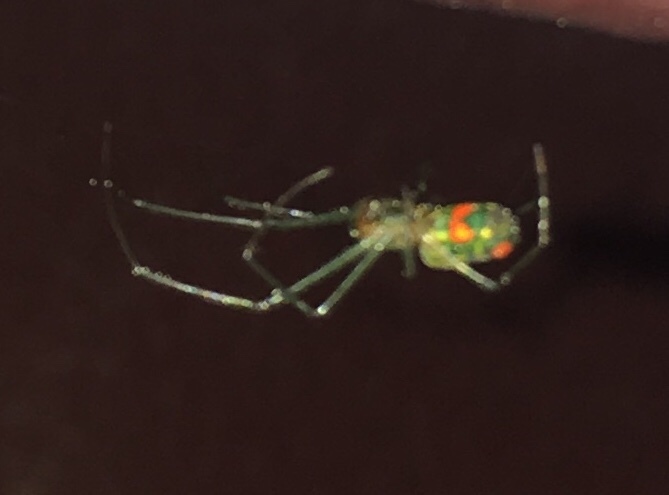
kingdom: Animalia
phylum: Arthropoda
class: Arachnida
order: Araneae
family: Tetragnathidae
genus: Leucauge
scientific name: Leucauge argyrobapta
